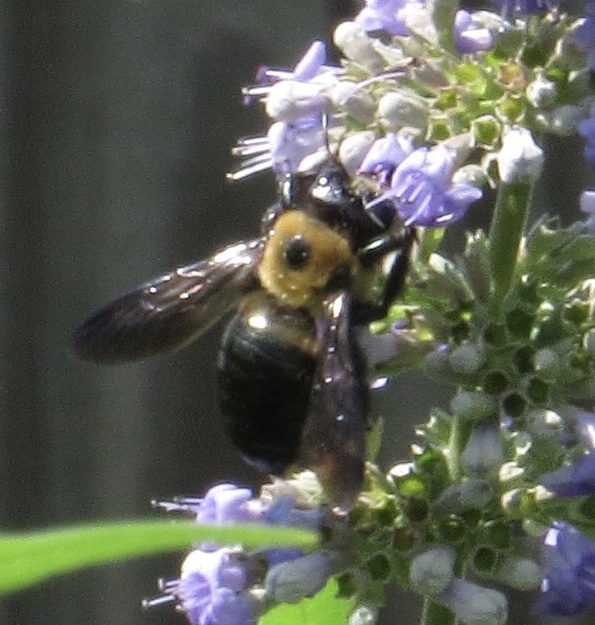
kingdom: Animalia
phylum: Arthropoda
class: Insecta
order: Hymenoptera
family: Apidae
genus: Xylocopa
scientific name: Xylocopa virginica
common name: Carpenter bee
